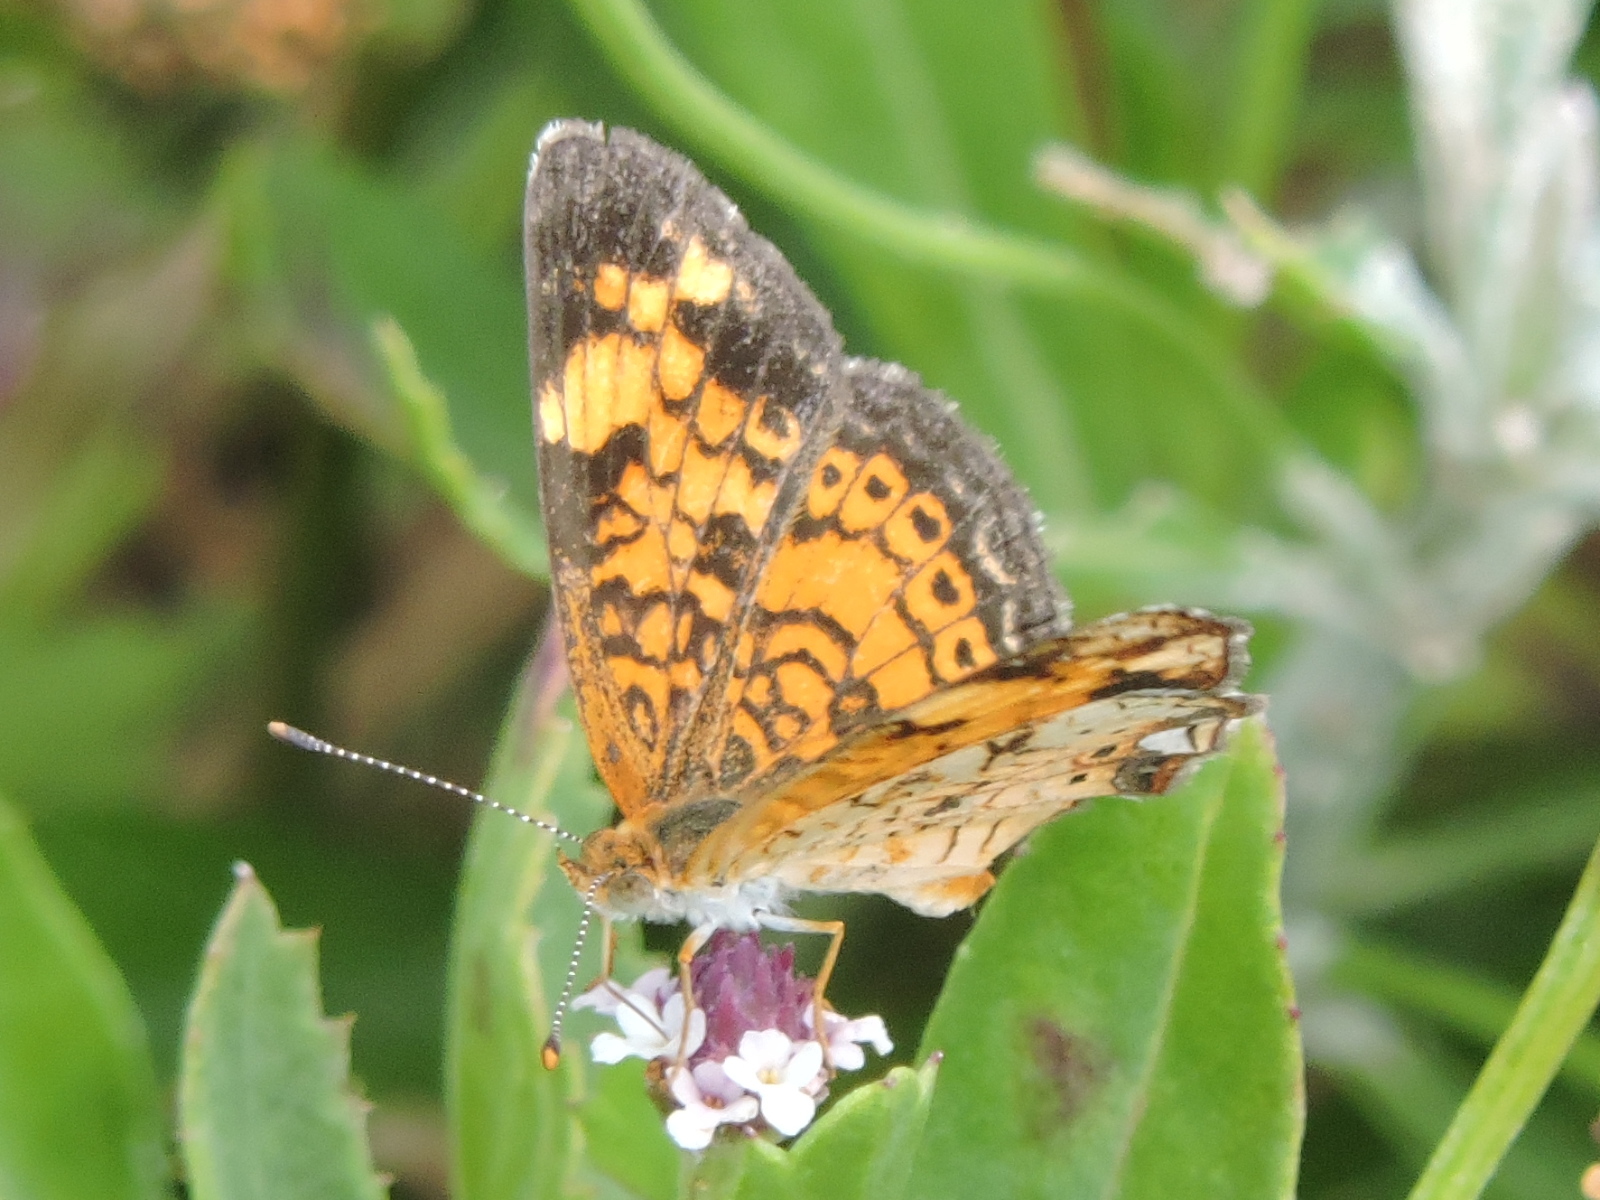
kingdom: Animalia
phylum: Arthropoda
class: Insecta
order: Lepidoptera
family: Nymphalidae
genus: Phyciodes
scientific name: Phyciodes tharos
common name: Pearl crescent
